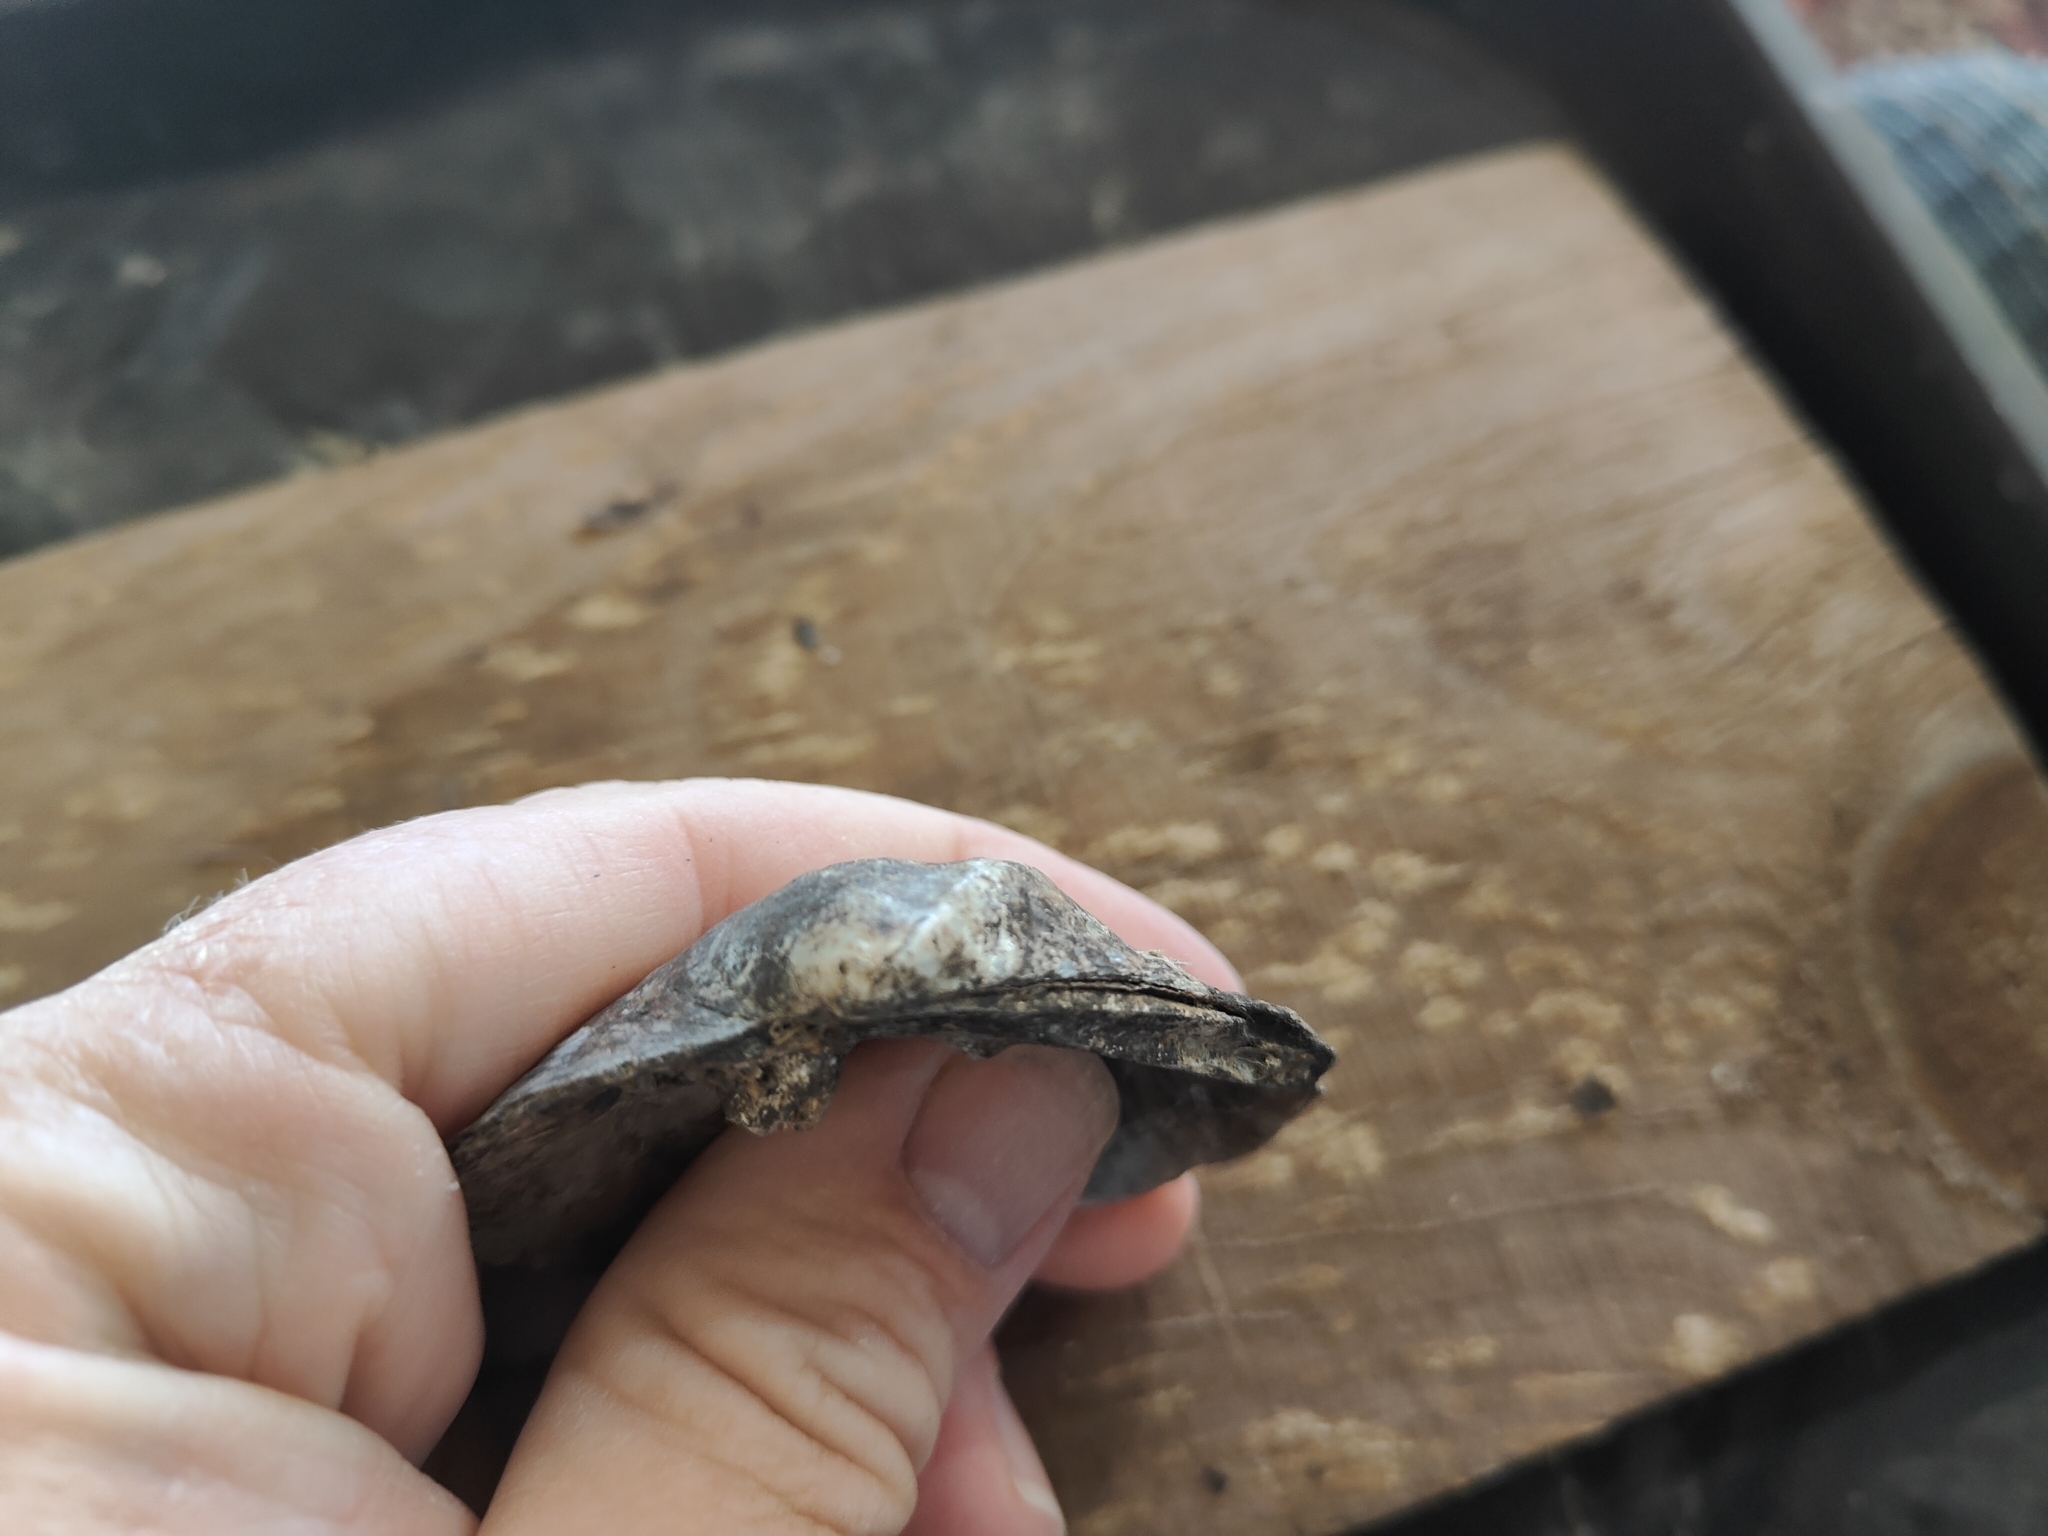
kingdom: Animalia
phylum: Mollusca
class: Bivalvia
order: Unionida
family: Unionidae
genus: Quadrula
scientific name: Quadrula quadrula
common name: Mapleleaf
